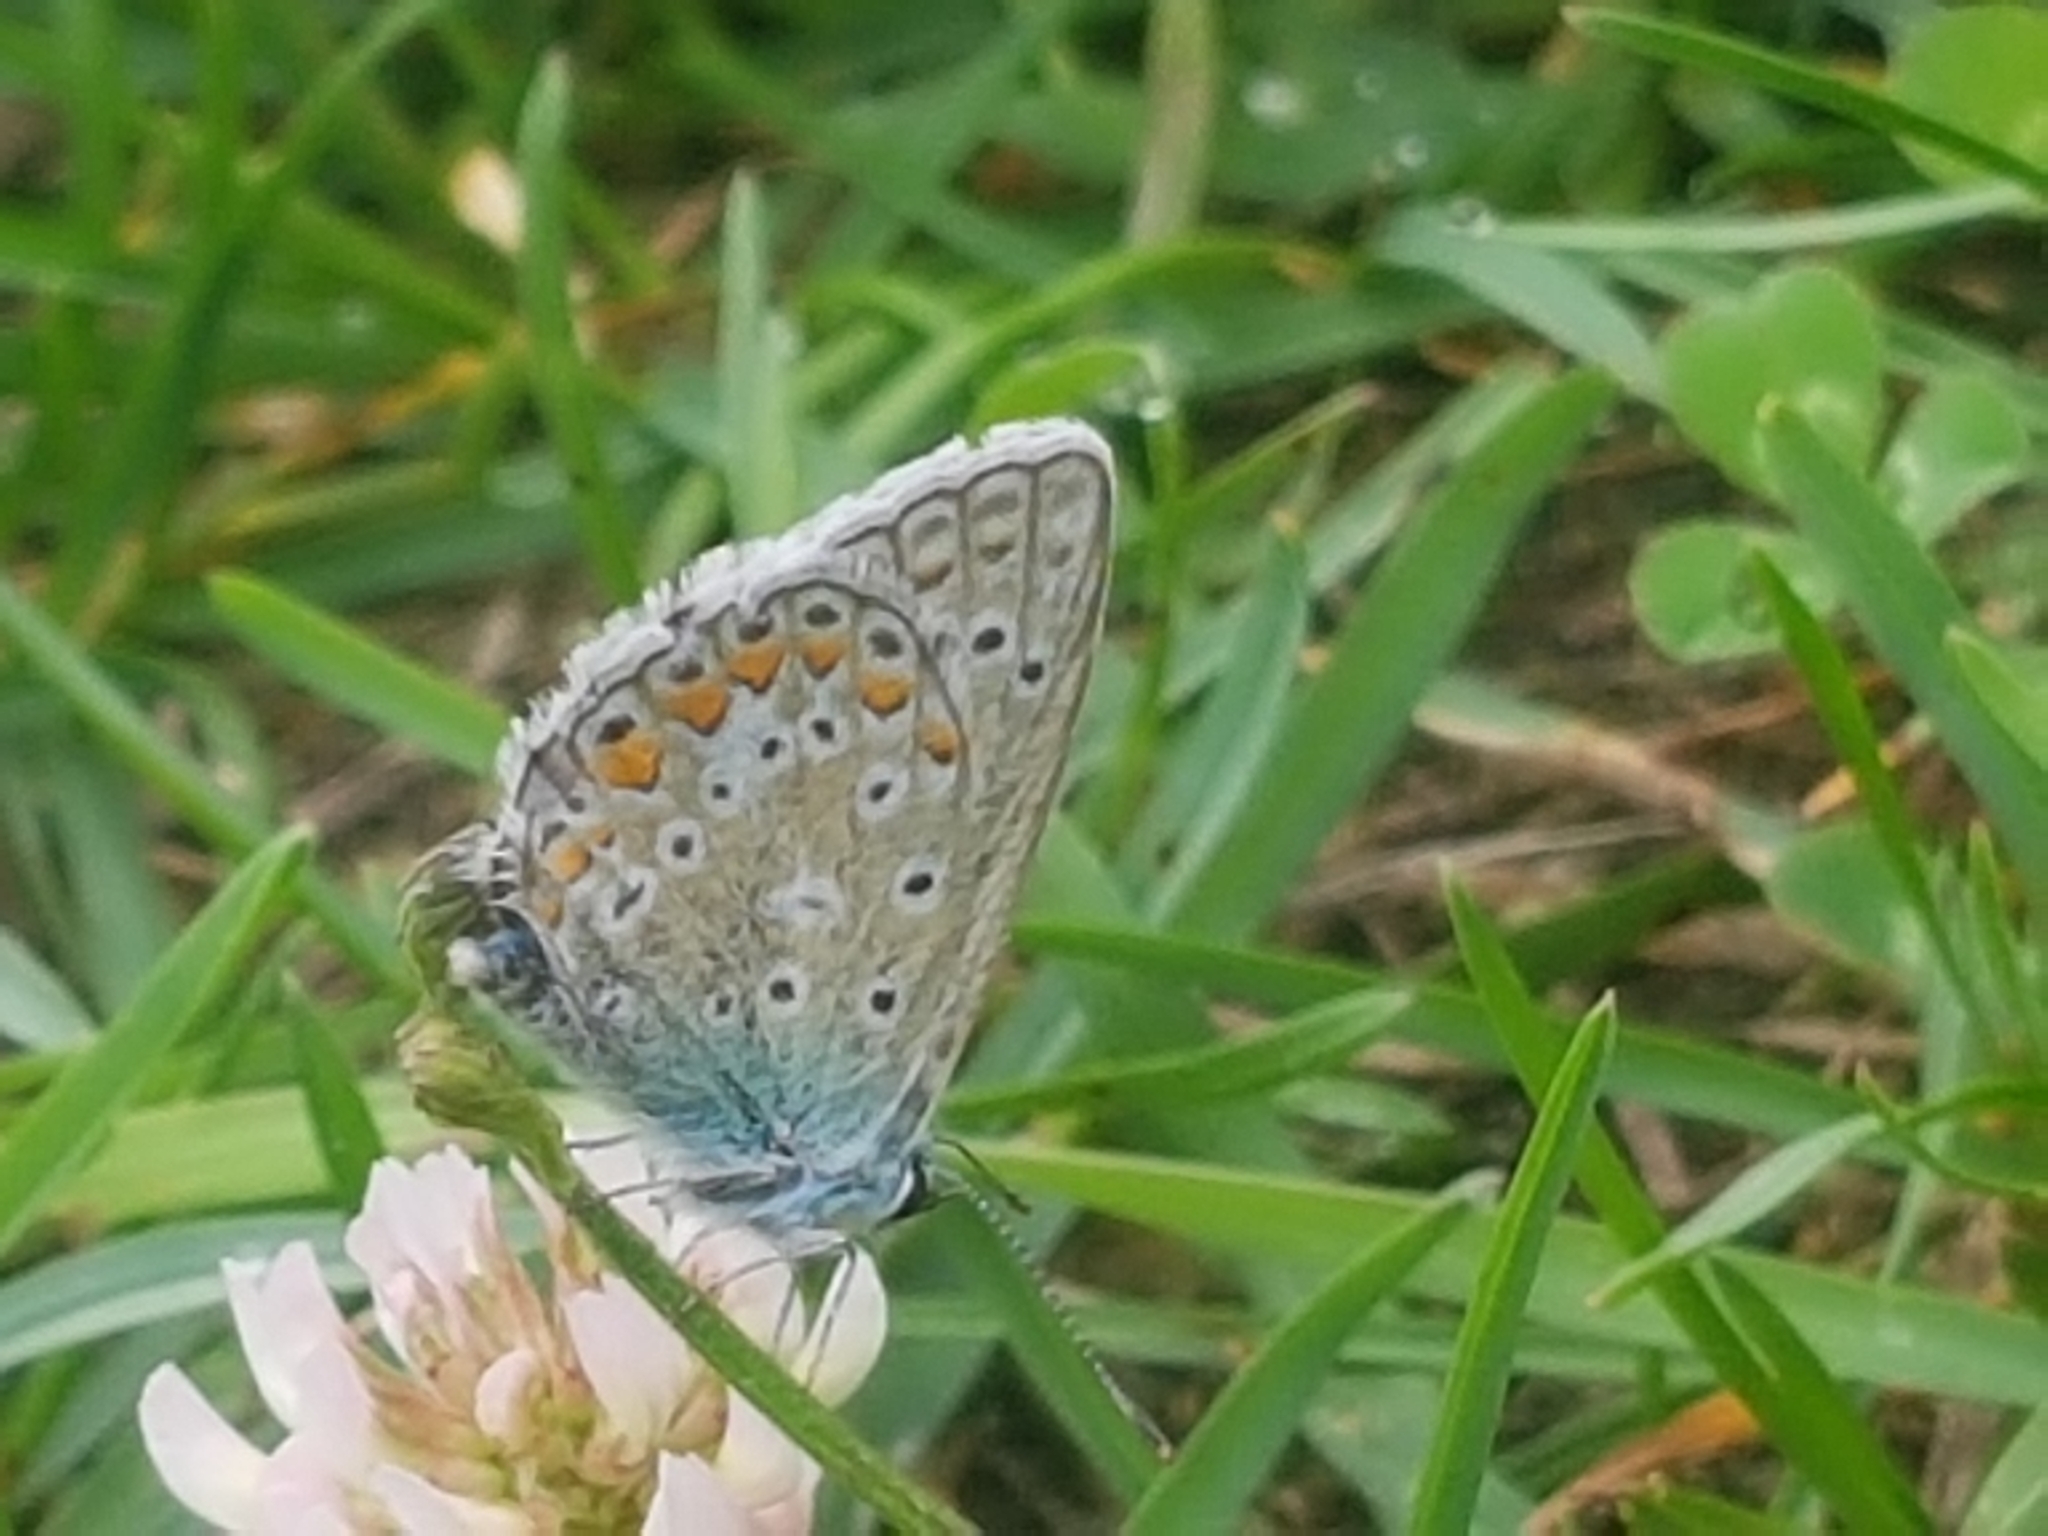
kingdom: Animalia
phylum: Arthropoda
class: Insecta
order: Lepidoptera
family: Lycaenidae
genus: Polyommatus
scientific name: Polyommatus icarus
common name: Common blue
